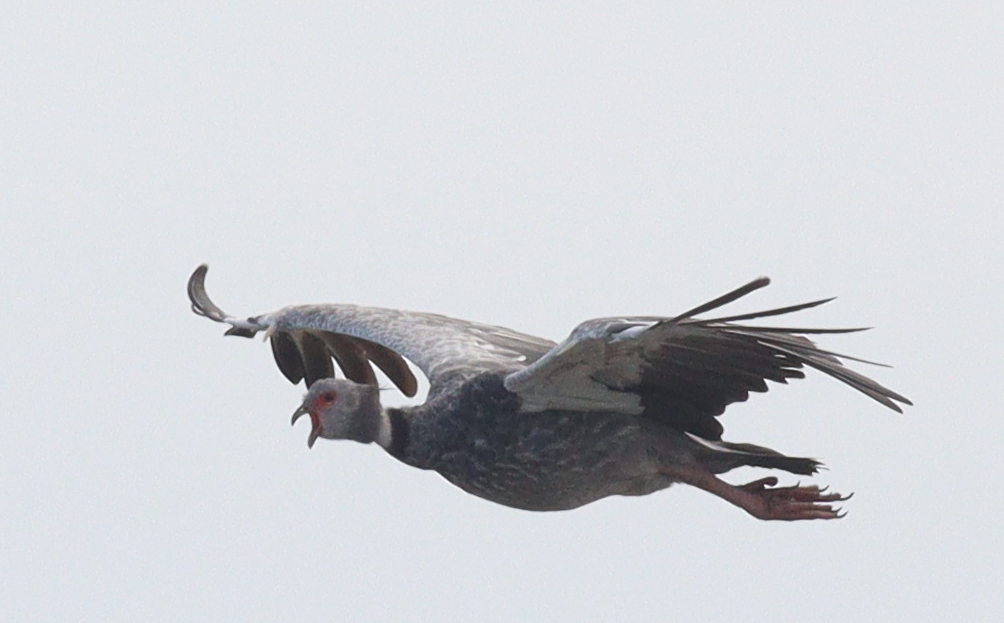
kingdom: Animalia
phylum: Chordata
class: Aves
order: Anseriformes
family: Anhimidae
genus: Chauna
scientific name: Chauna torquata
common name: Southern screamer
